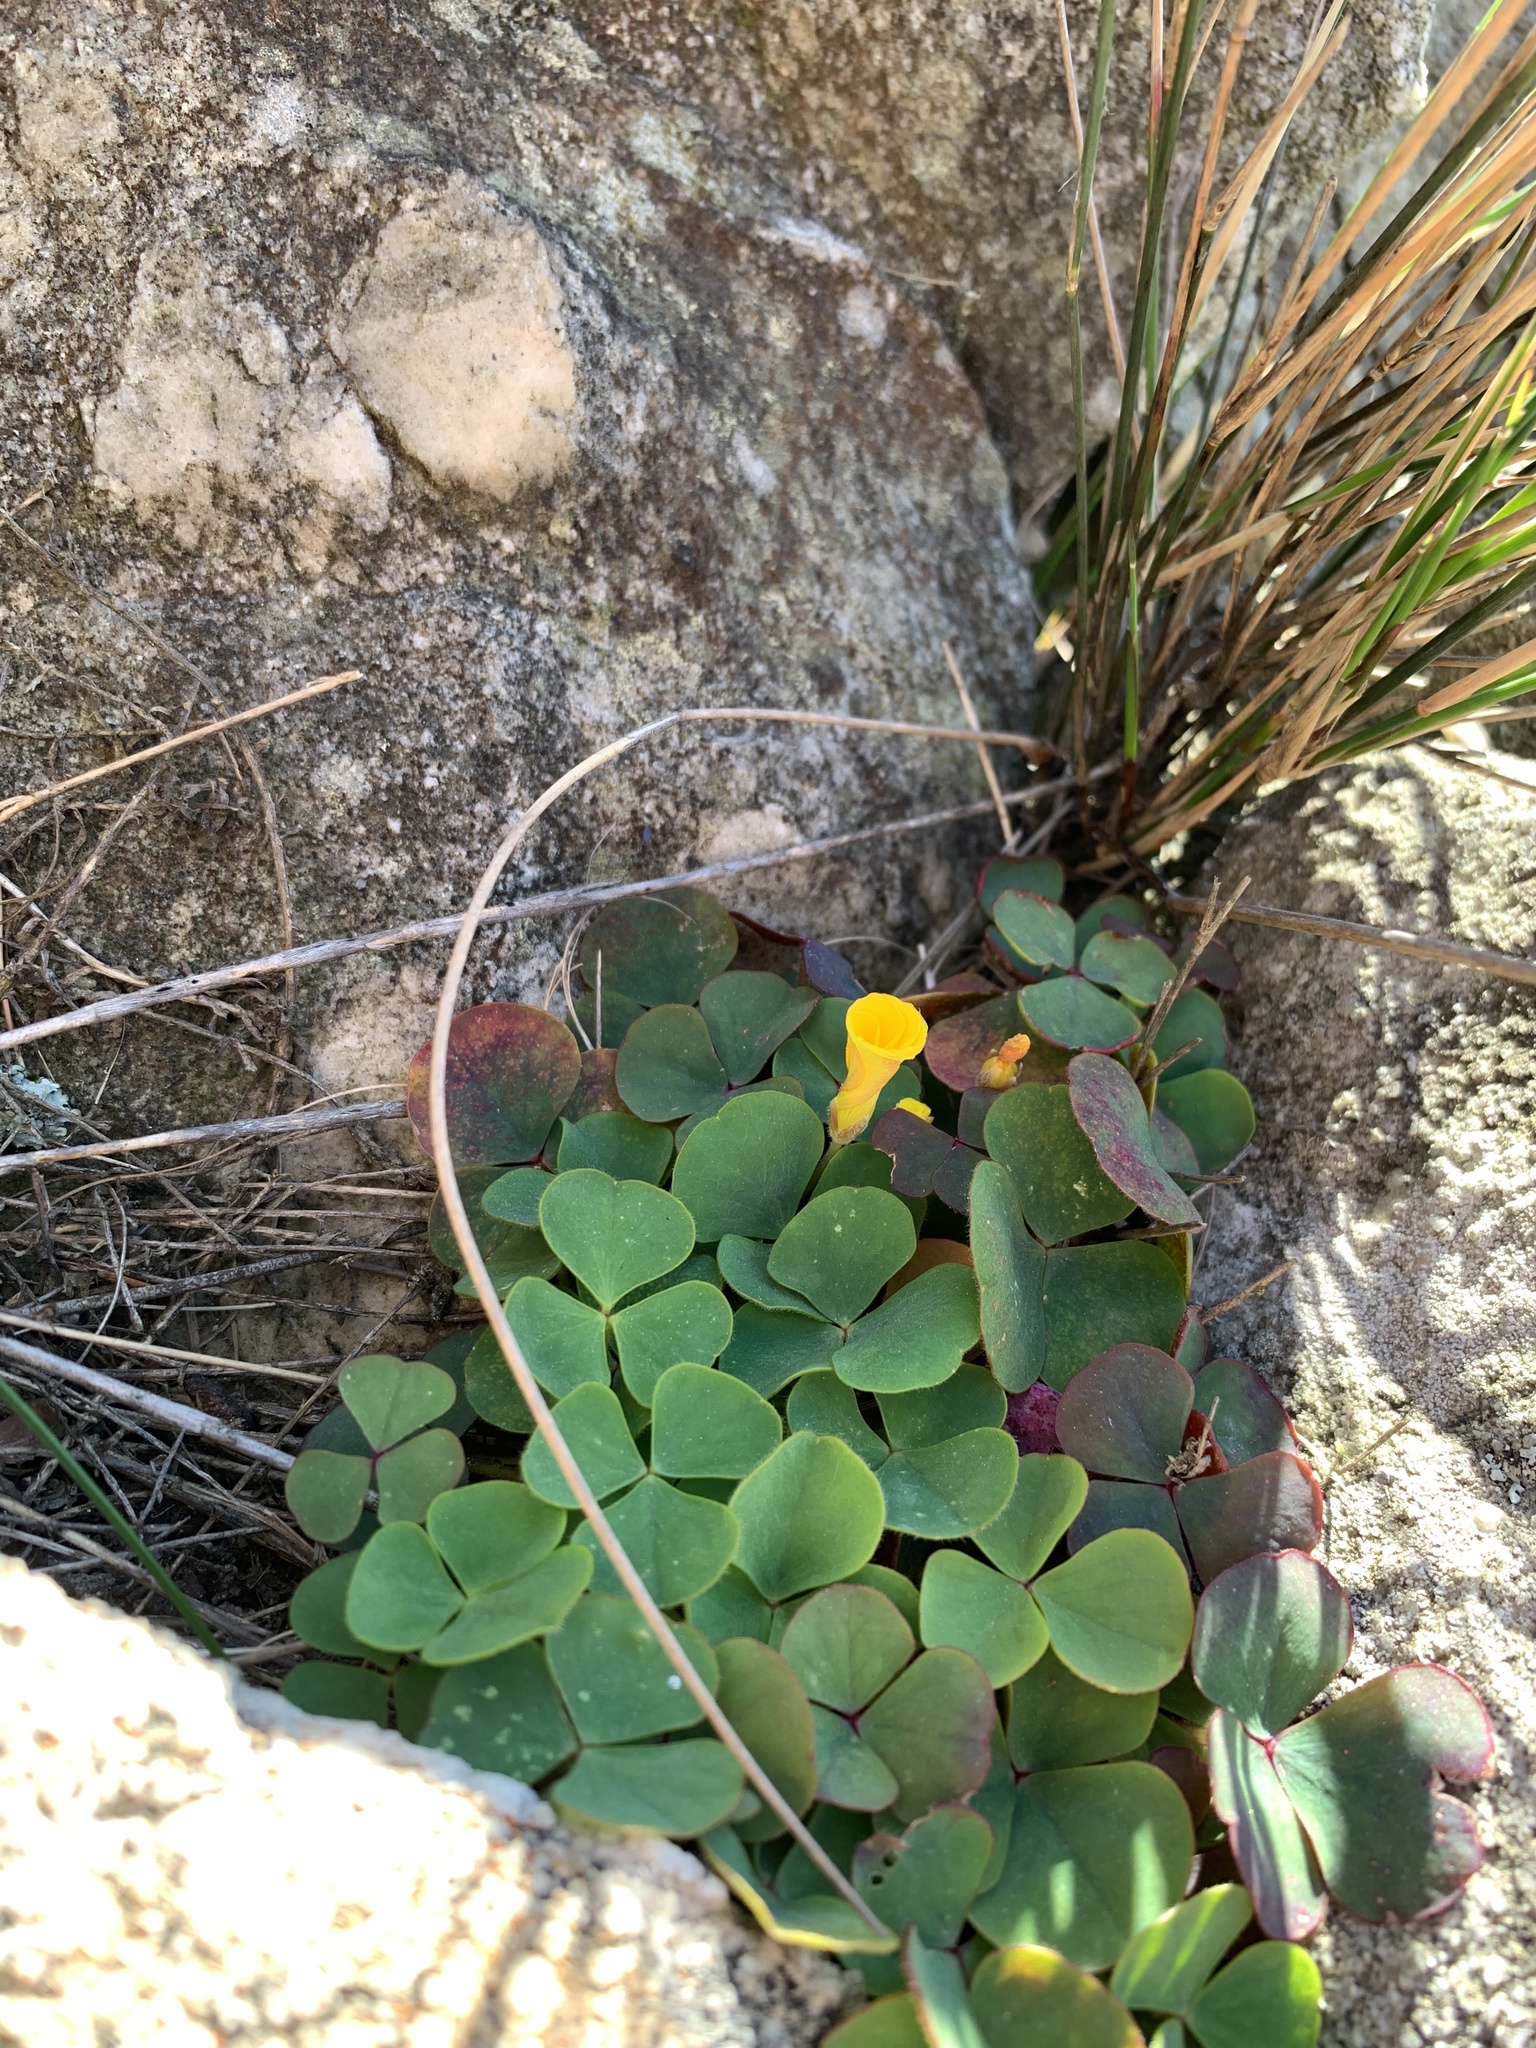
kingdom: Plantae
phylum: Tracheophyta
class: Magnoliopsida
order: Oxalidales
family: Oxalidaceae
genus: Oxalis
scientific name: Oxalis luteola
